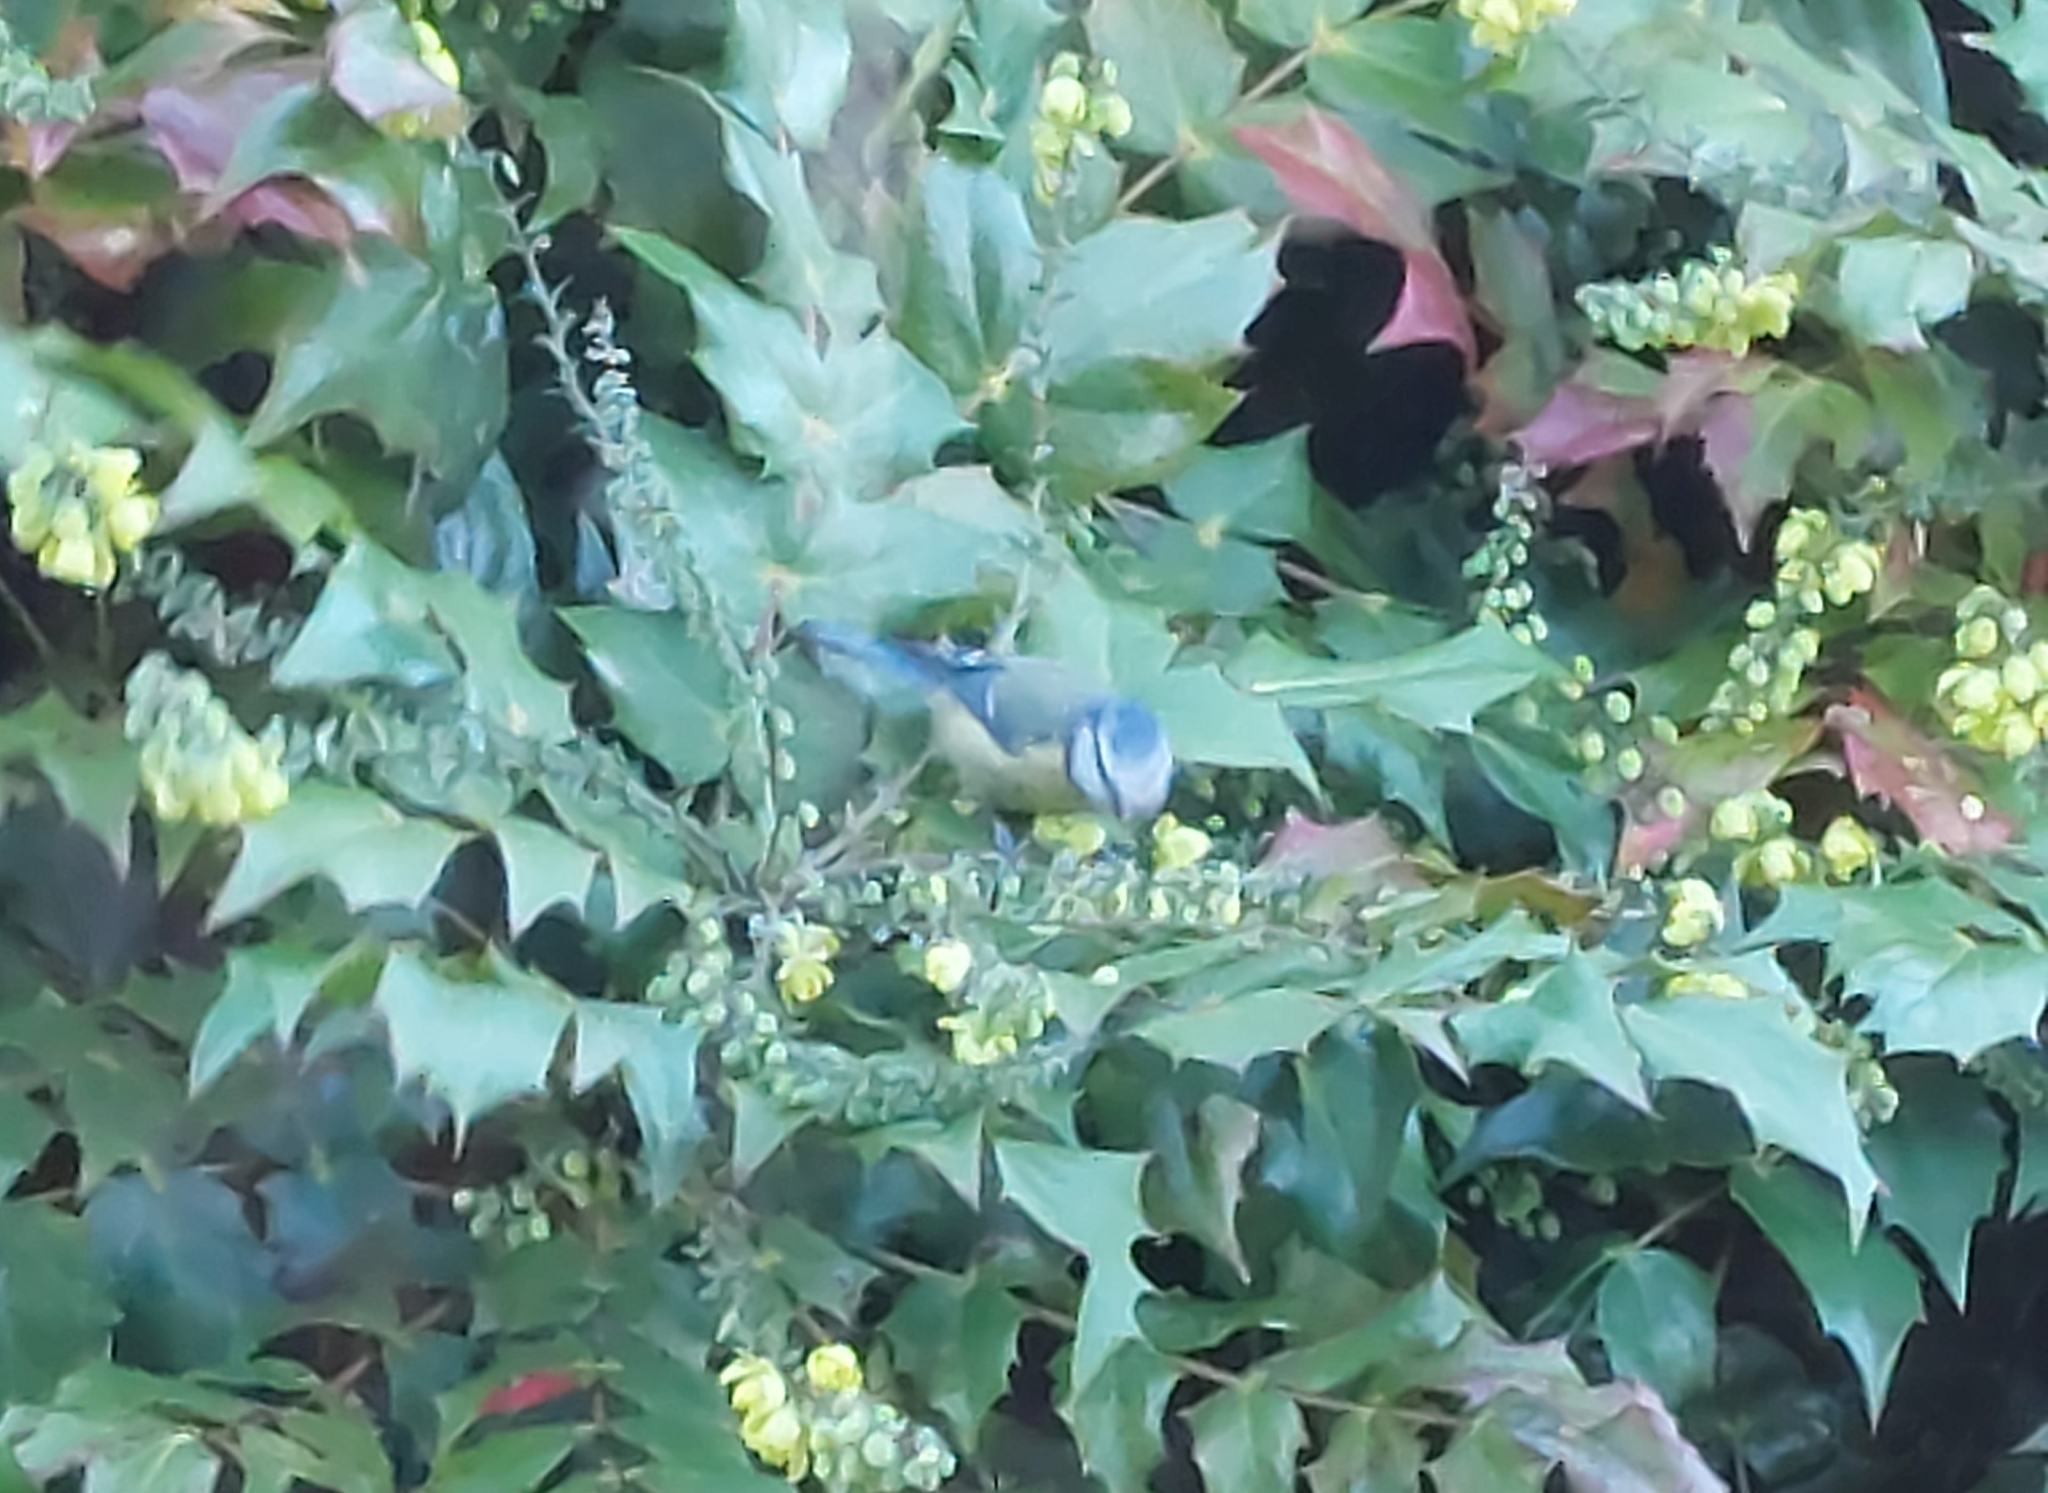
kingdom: Animalia
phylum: Chordata
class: Aves
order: Passeriformes
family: Paridae
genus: Cyanistes
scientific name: Cyanistes caeruleus
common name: Eurasian blue tit
